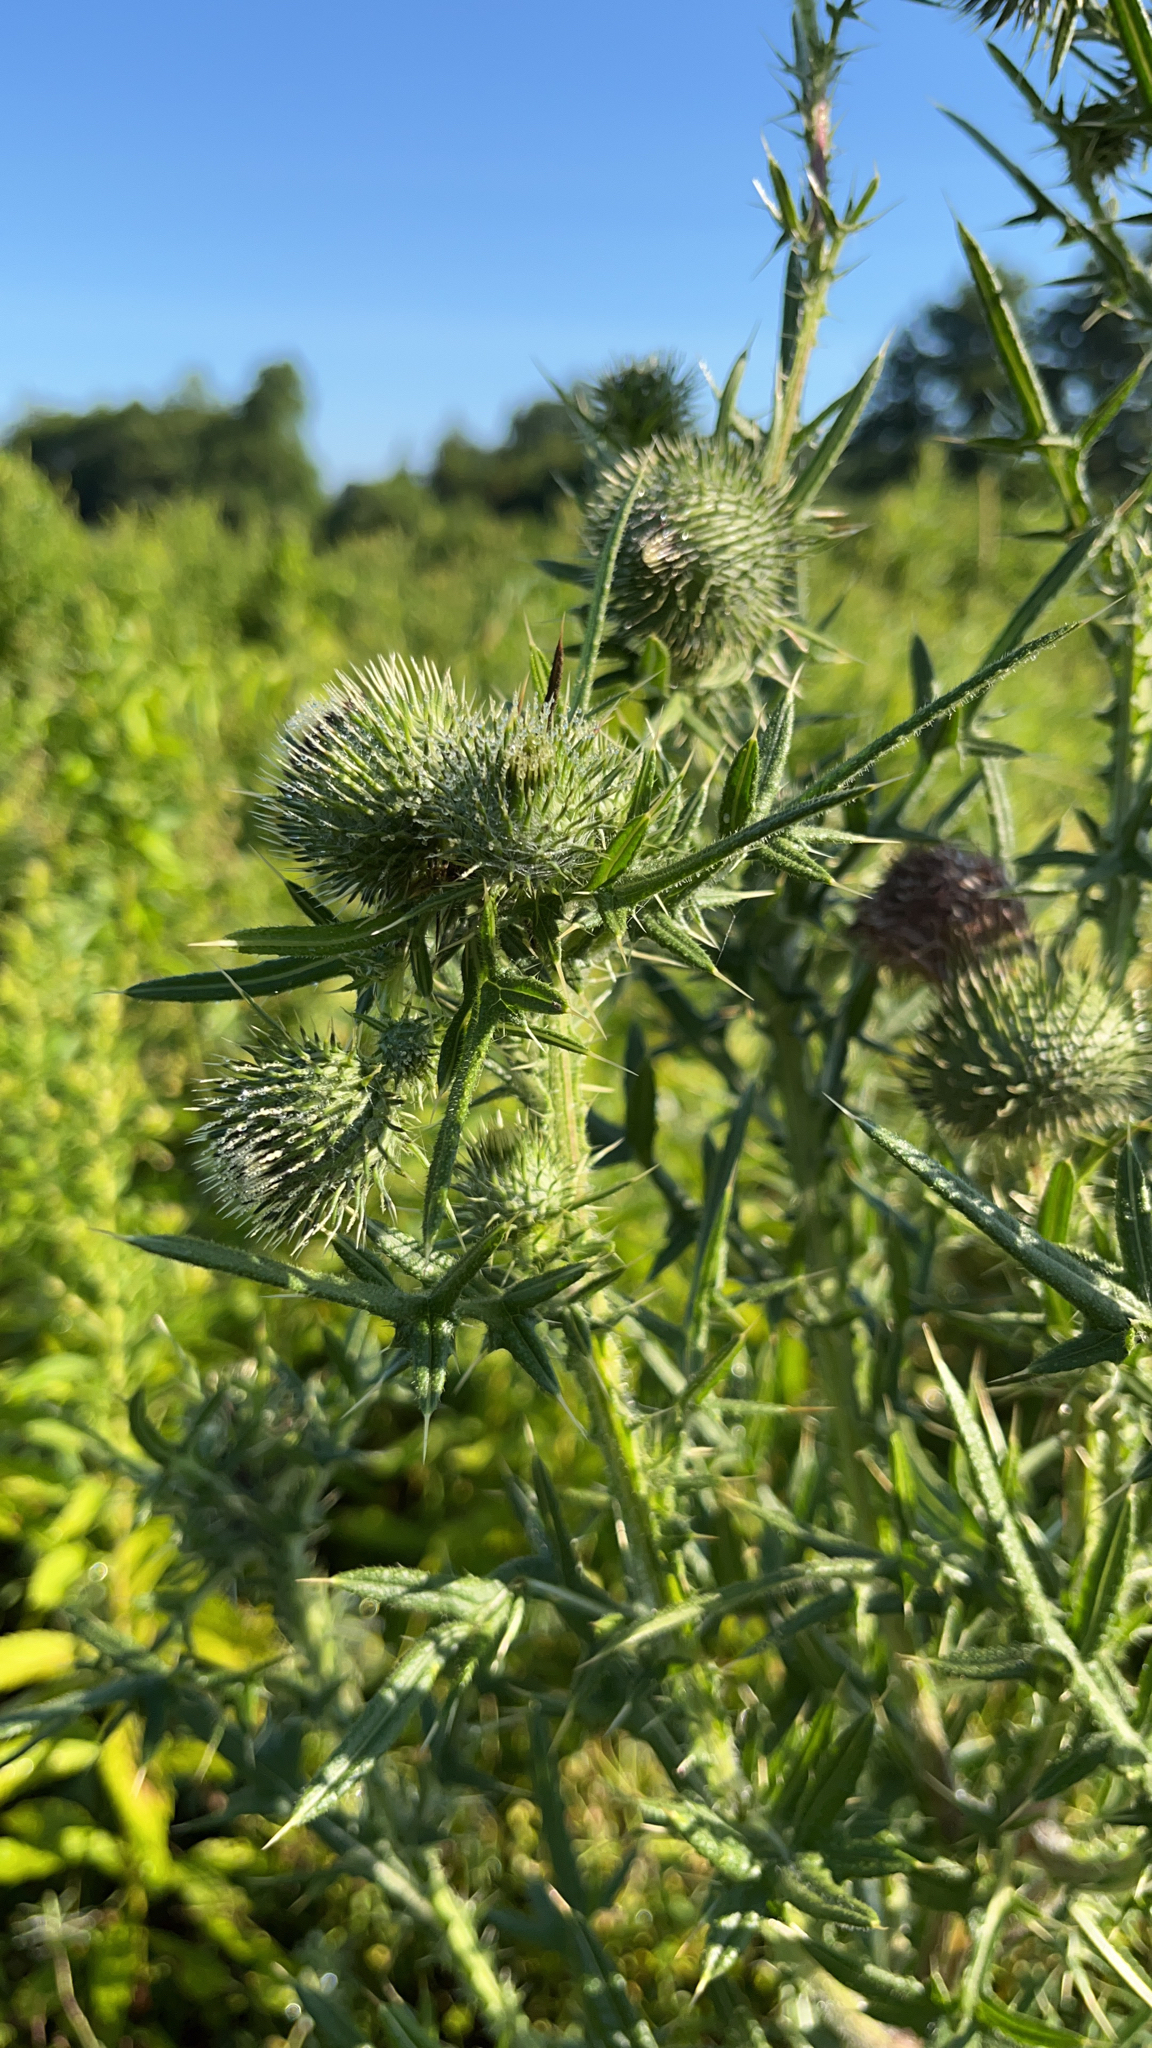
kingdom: Plantae
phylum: Tracheophyta
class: Magnoliopsida
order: Asterales
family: Asteraceae
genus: Cirsium
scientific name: Cirsium vulgare
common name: Bull thistle
